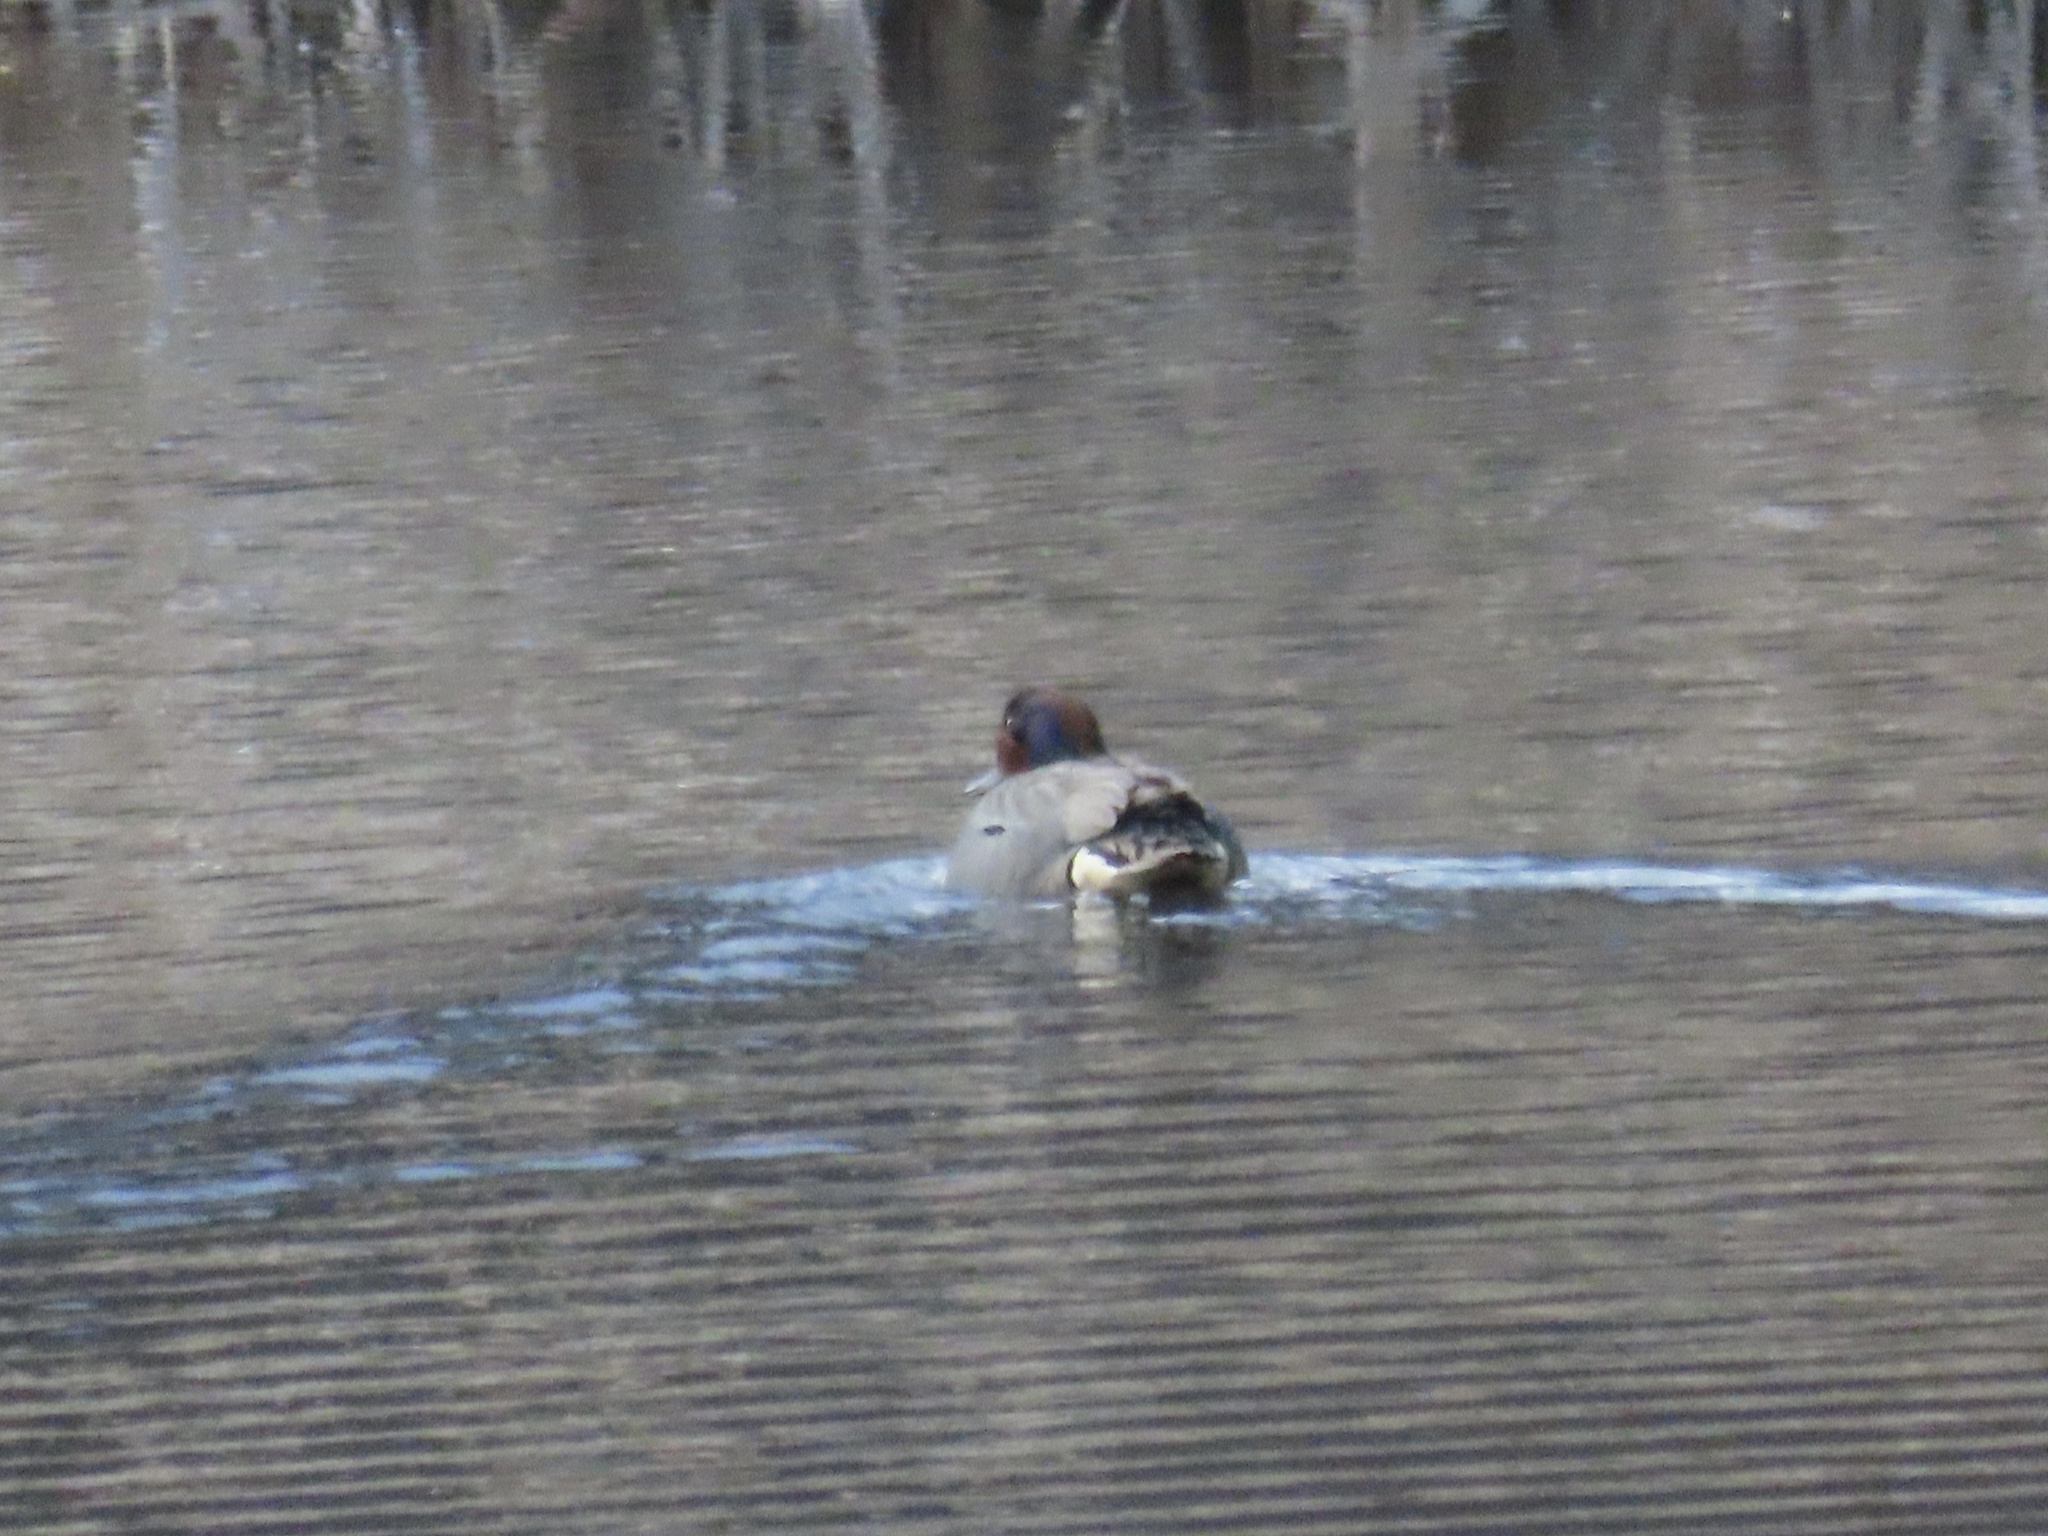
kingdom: Animalia
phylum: Chordata
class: Aves
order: Anseriformes
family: Anatidae
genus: Anas
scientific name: Anas crecca
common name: Eurasian teal
